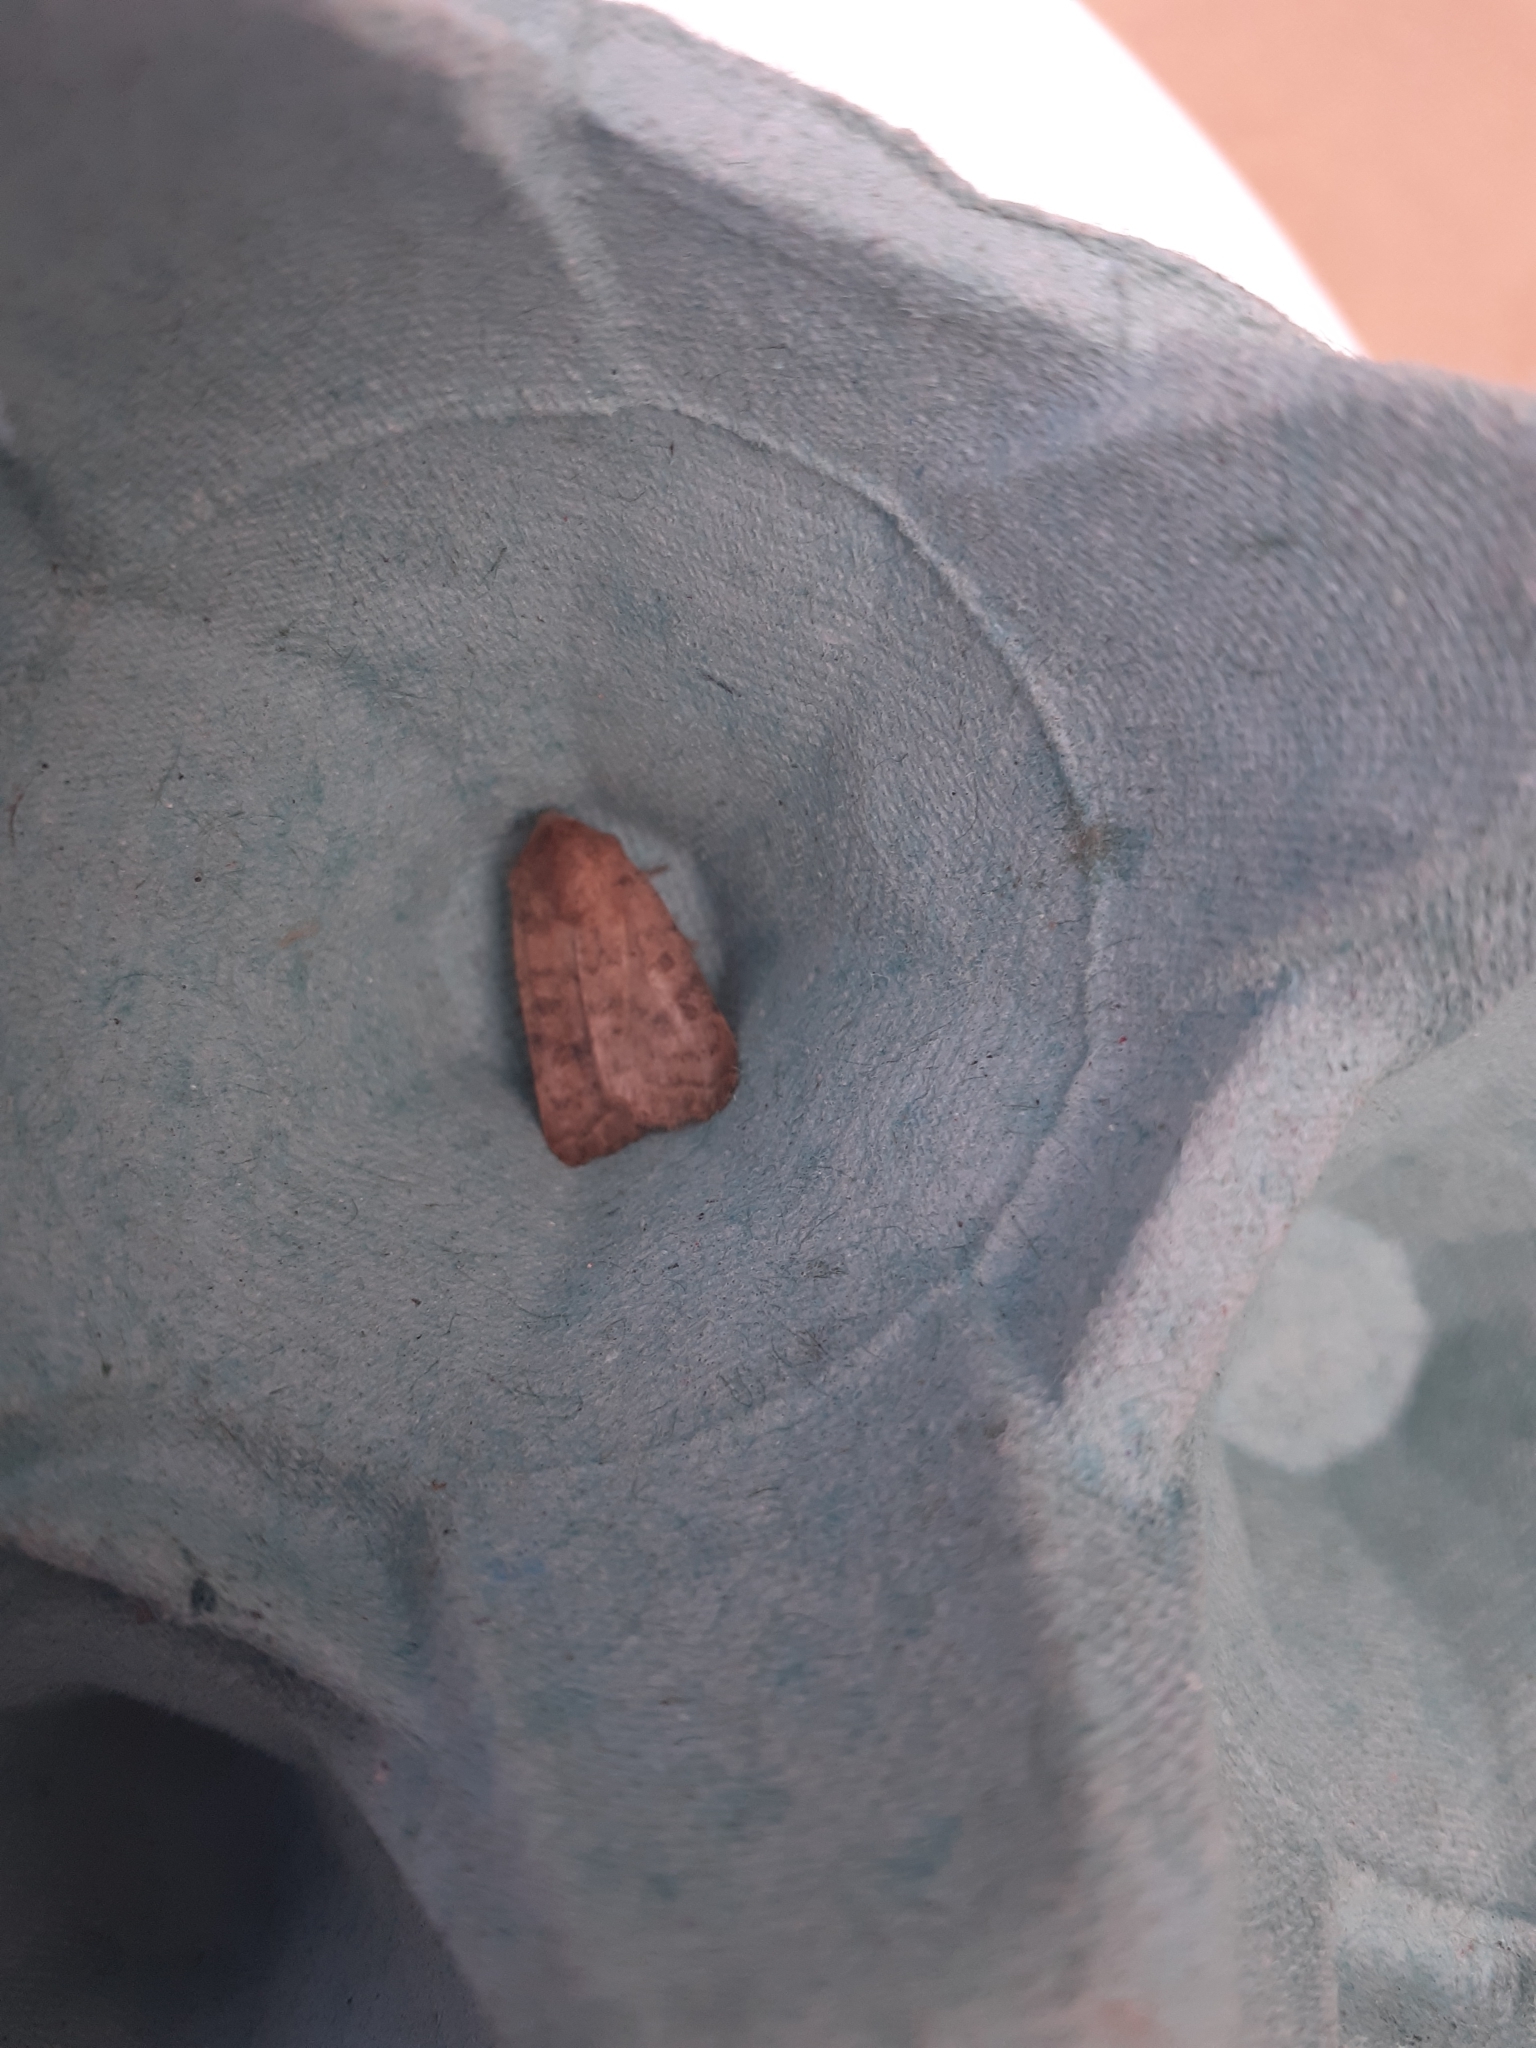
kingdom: Animalia
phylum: Arthropoda
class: Insecta
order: Lepidoptera
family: Noctuidae
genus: Hoplodrina
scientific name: Hoplodrina octogenaria
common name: Uncertain
